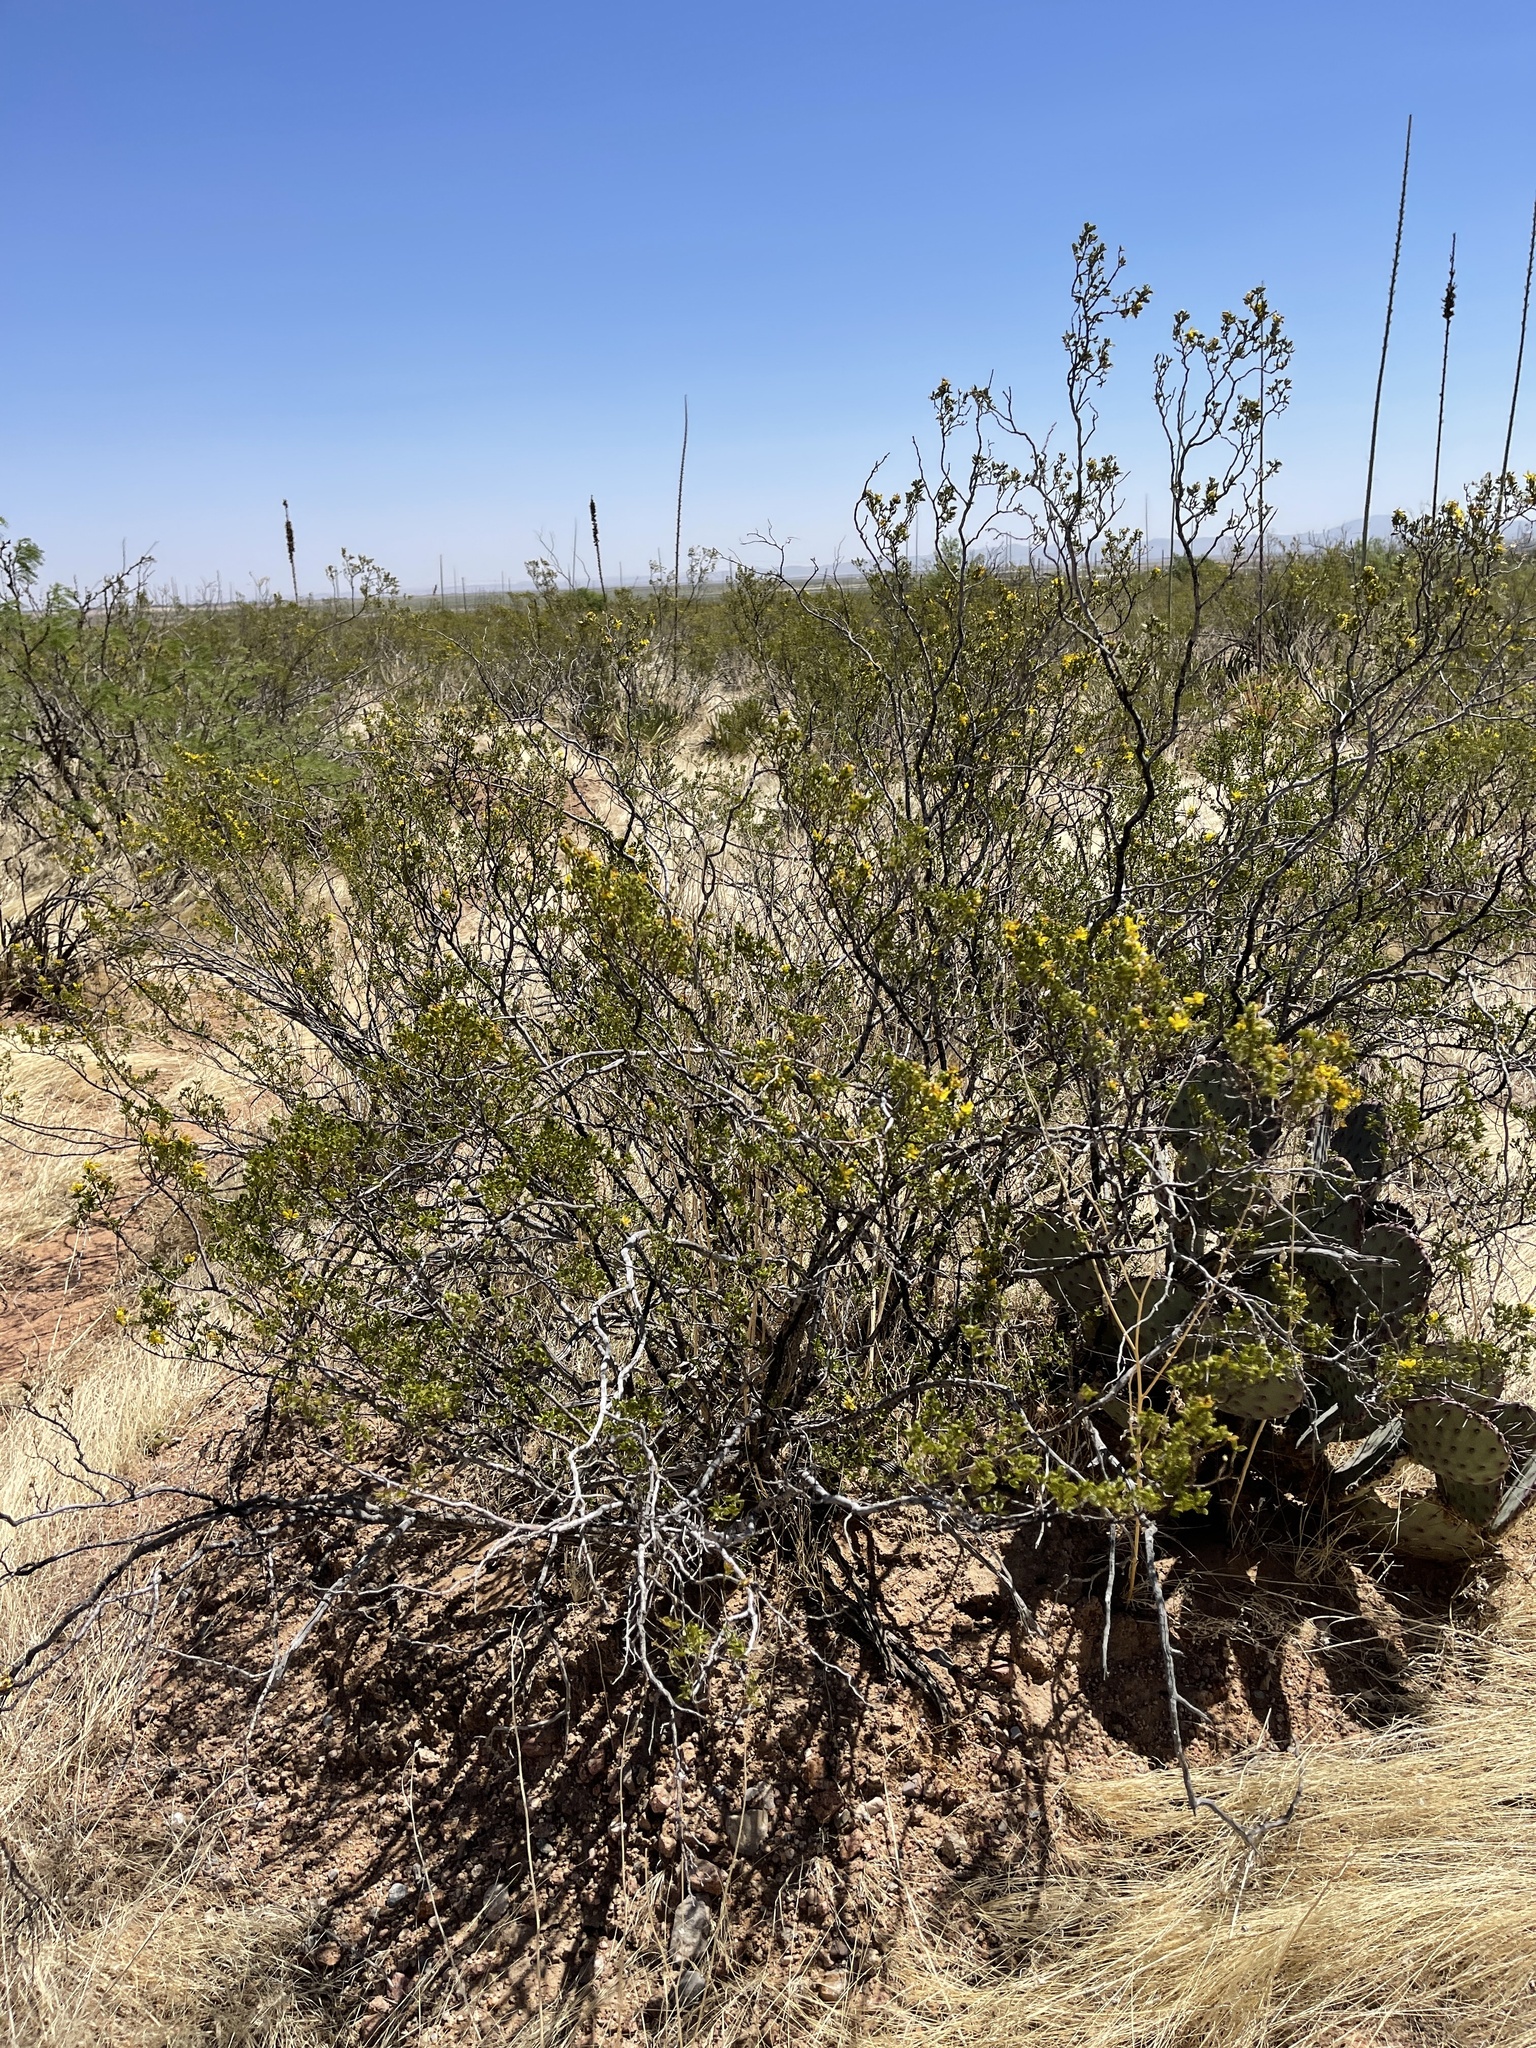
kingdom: Plantae
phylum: Tracheophyta
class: Magnoliopsida
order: Zygophyllales
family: Zygophyllaceae
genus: Larrea
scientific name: Larrea tridentata
